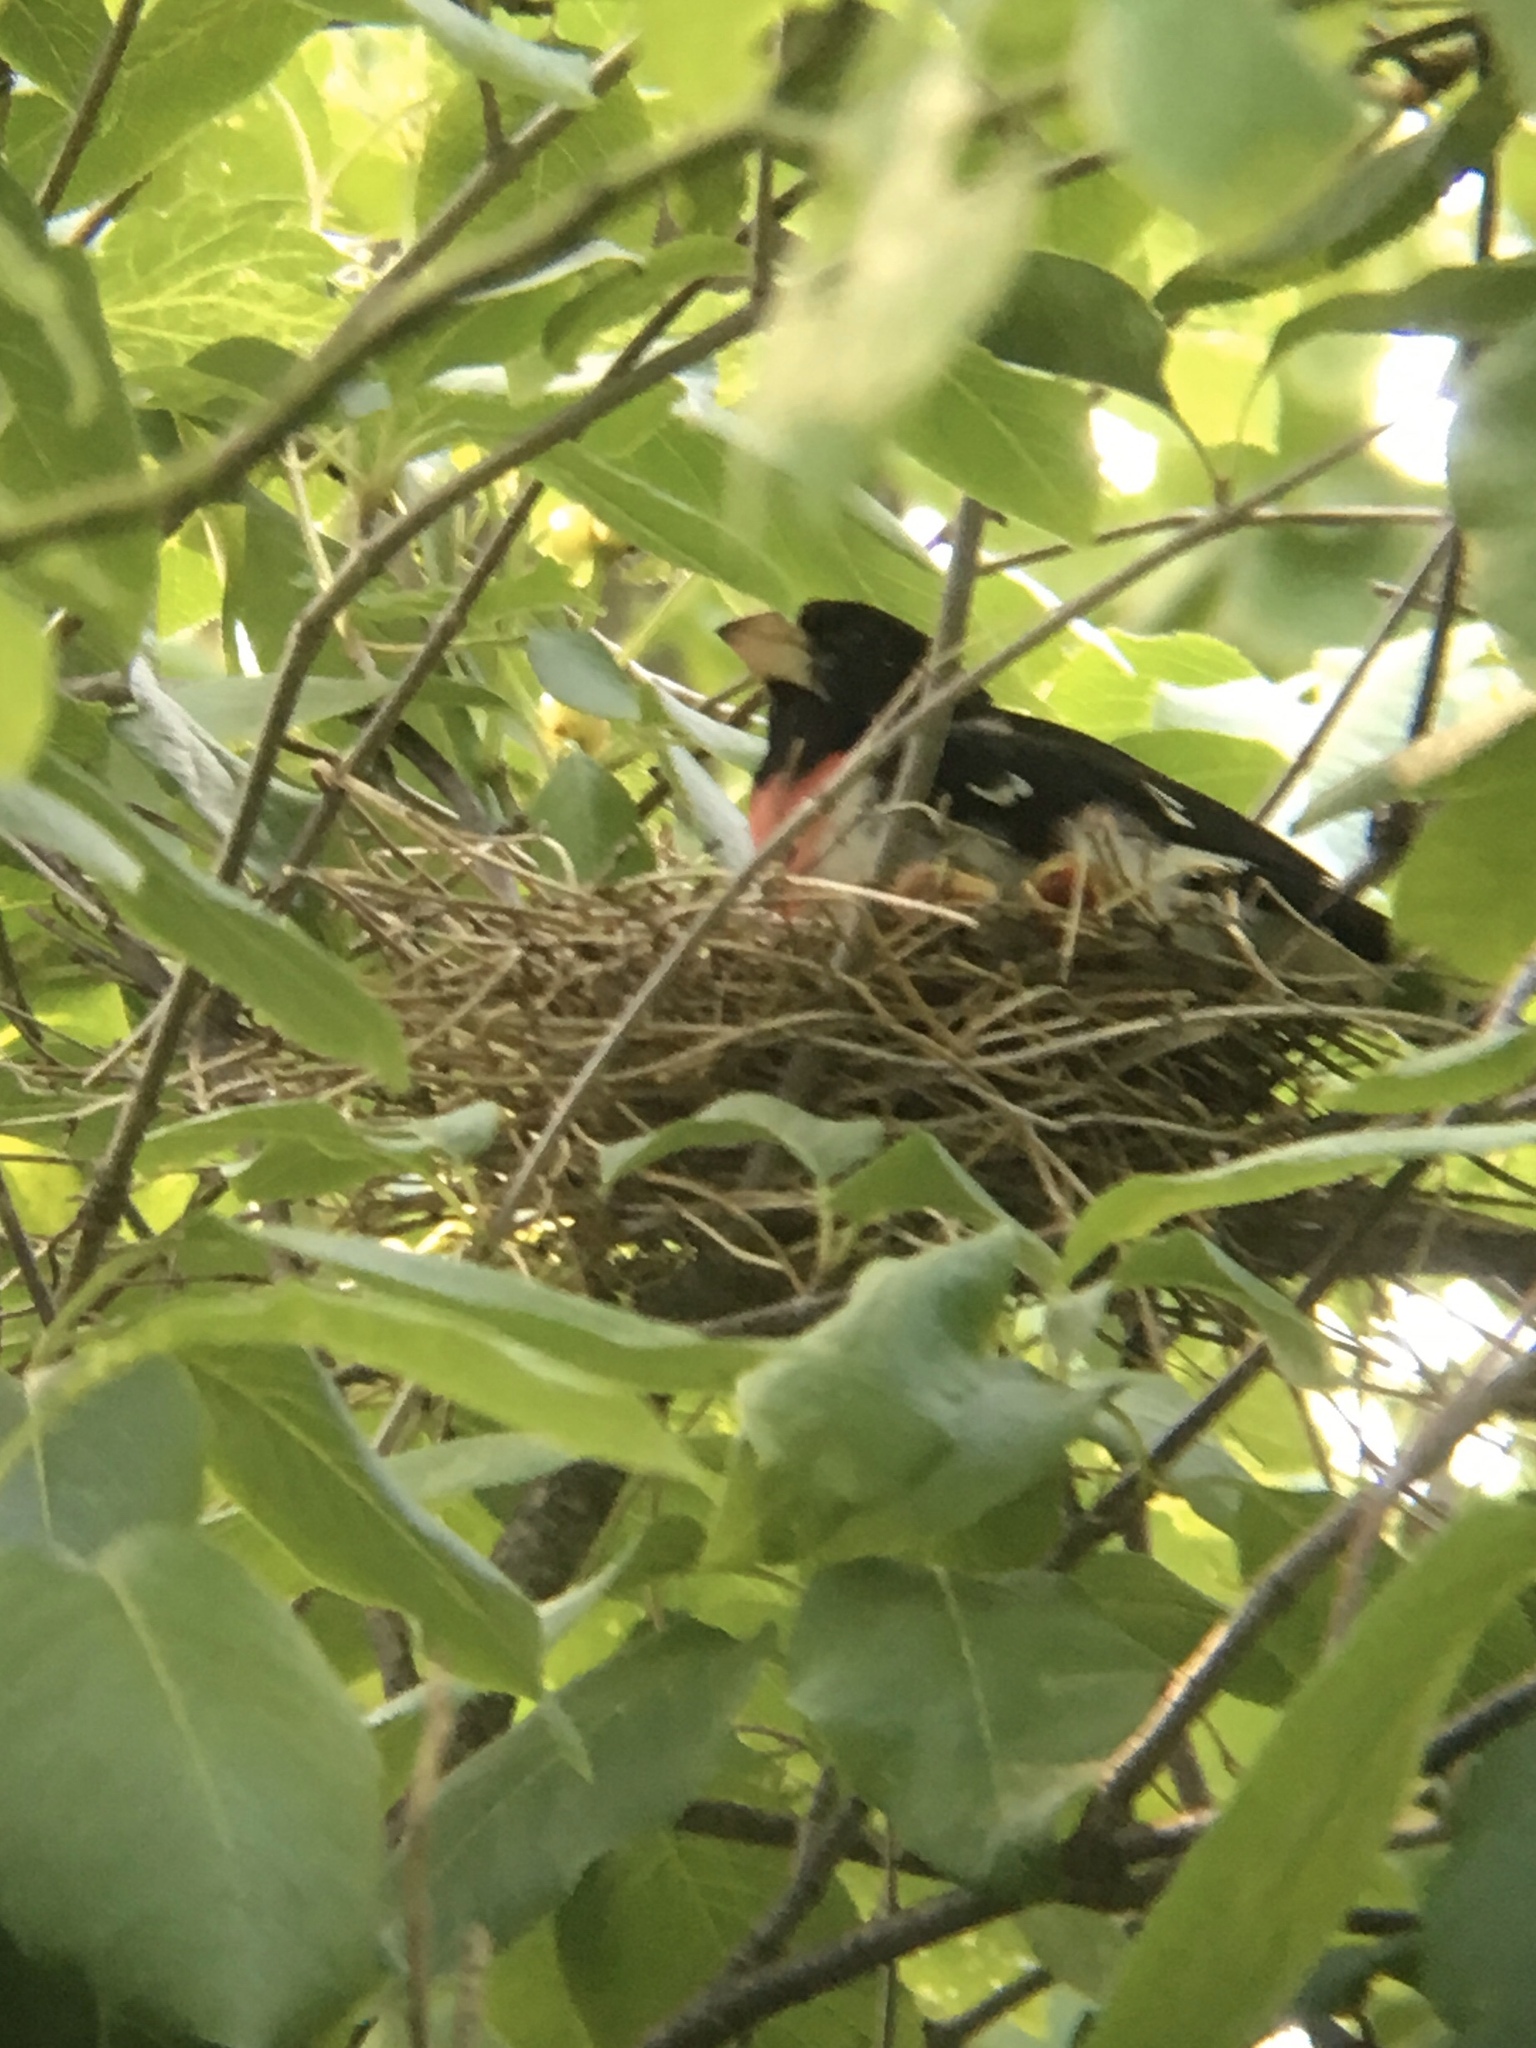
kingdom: Animalia
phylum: Chordata
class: Aves
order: Passeriformes
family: Cardinalidae
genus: Pheucticus
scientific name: Pheucticus ludovicianus
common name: Rose-breasted grosbeak
